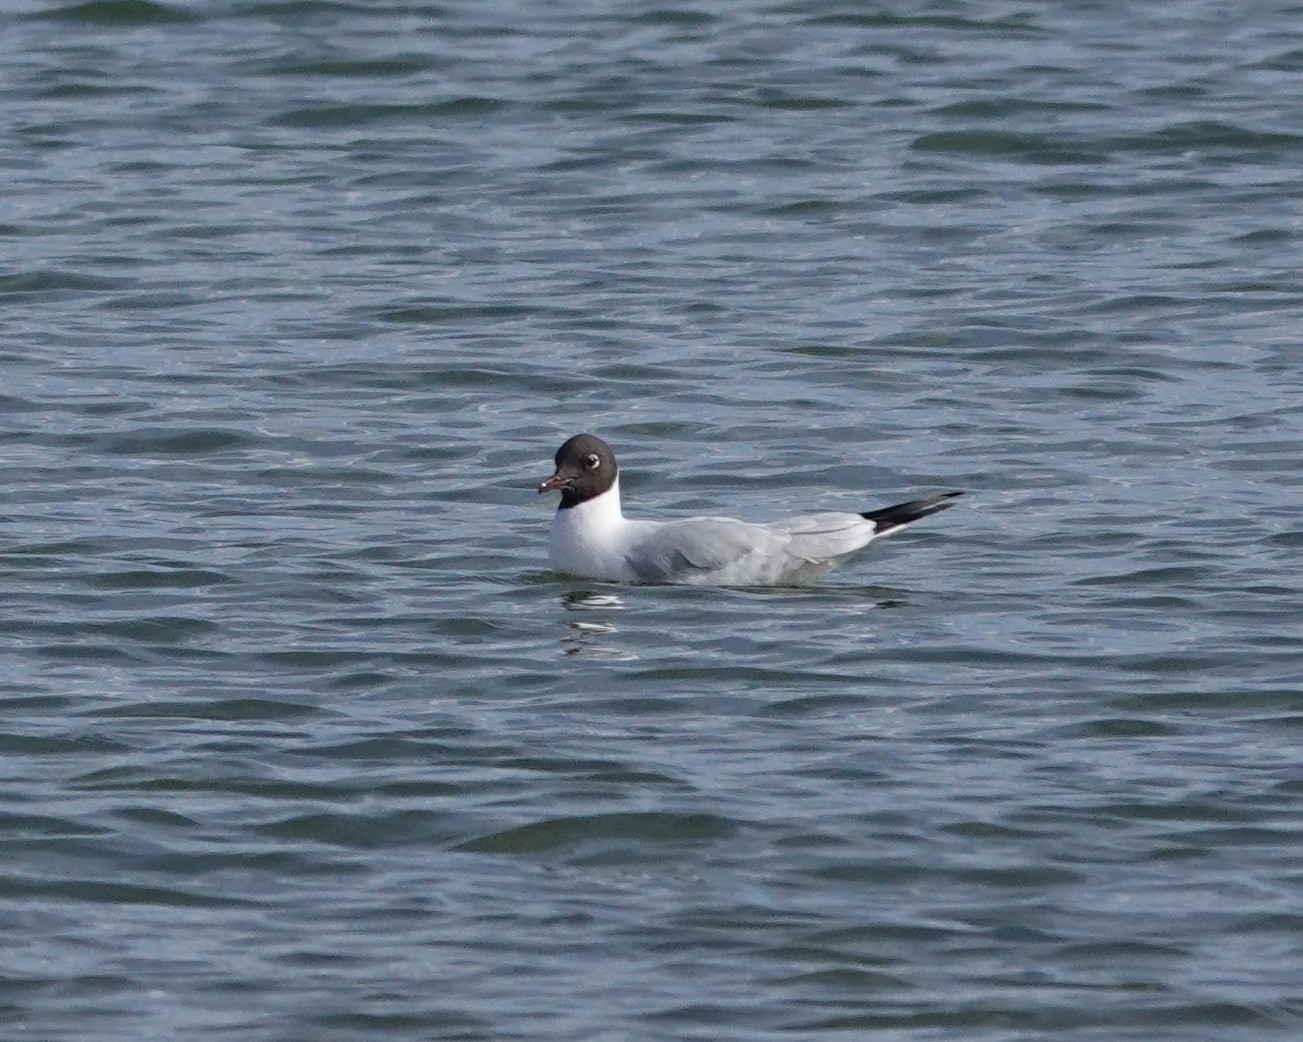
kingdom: Animalia
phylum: Chordata
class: Aves
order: Charadriiformes
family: Laridae
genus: Chroicocephalus
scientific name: Chroicocephalus ridibundus
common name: Black-headed gull
